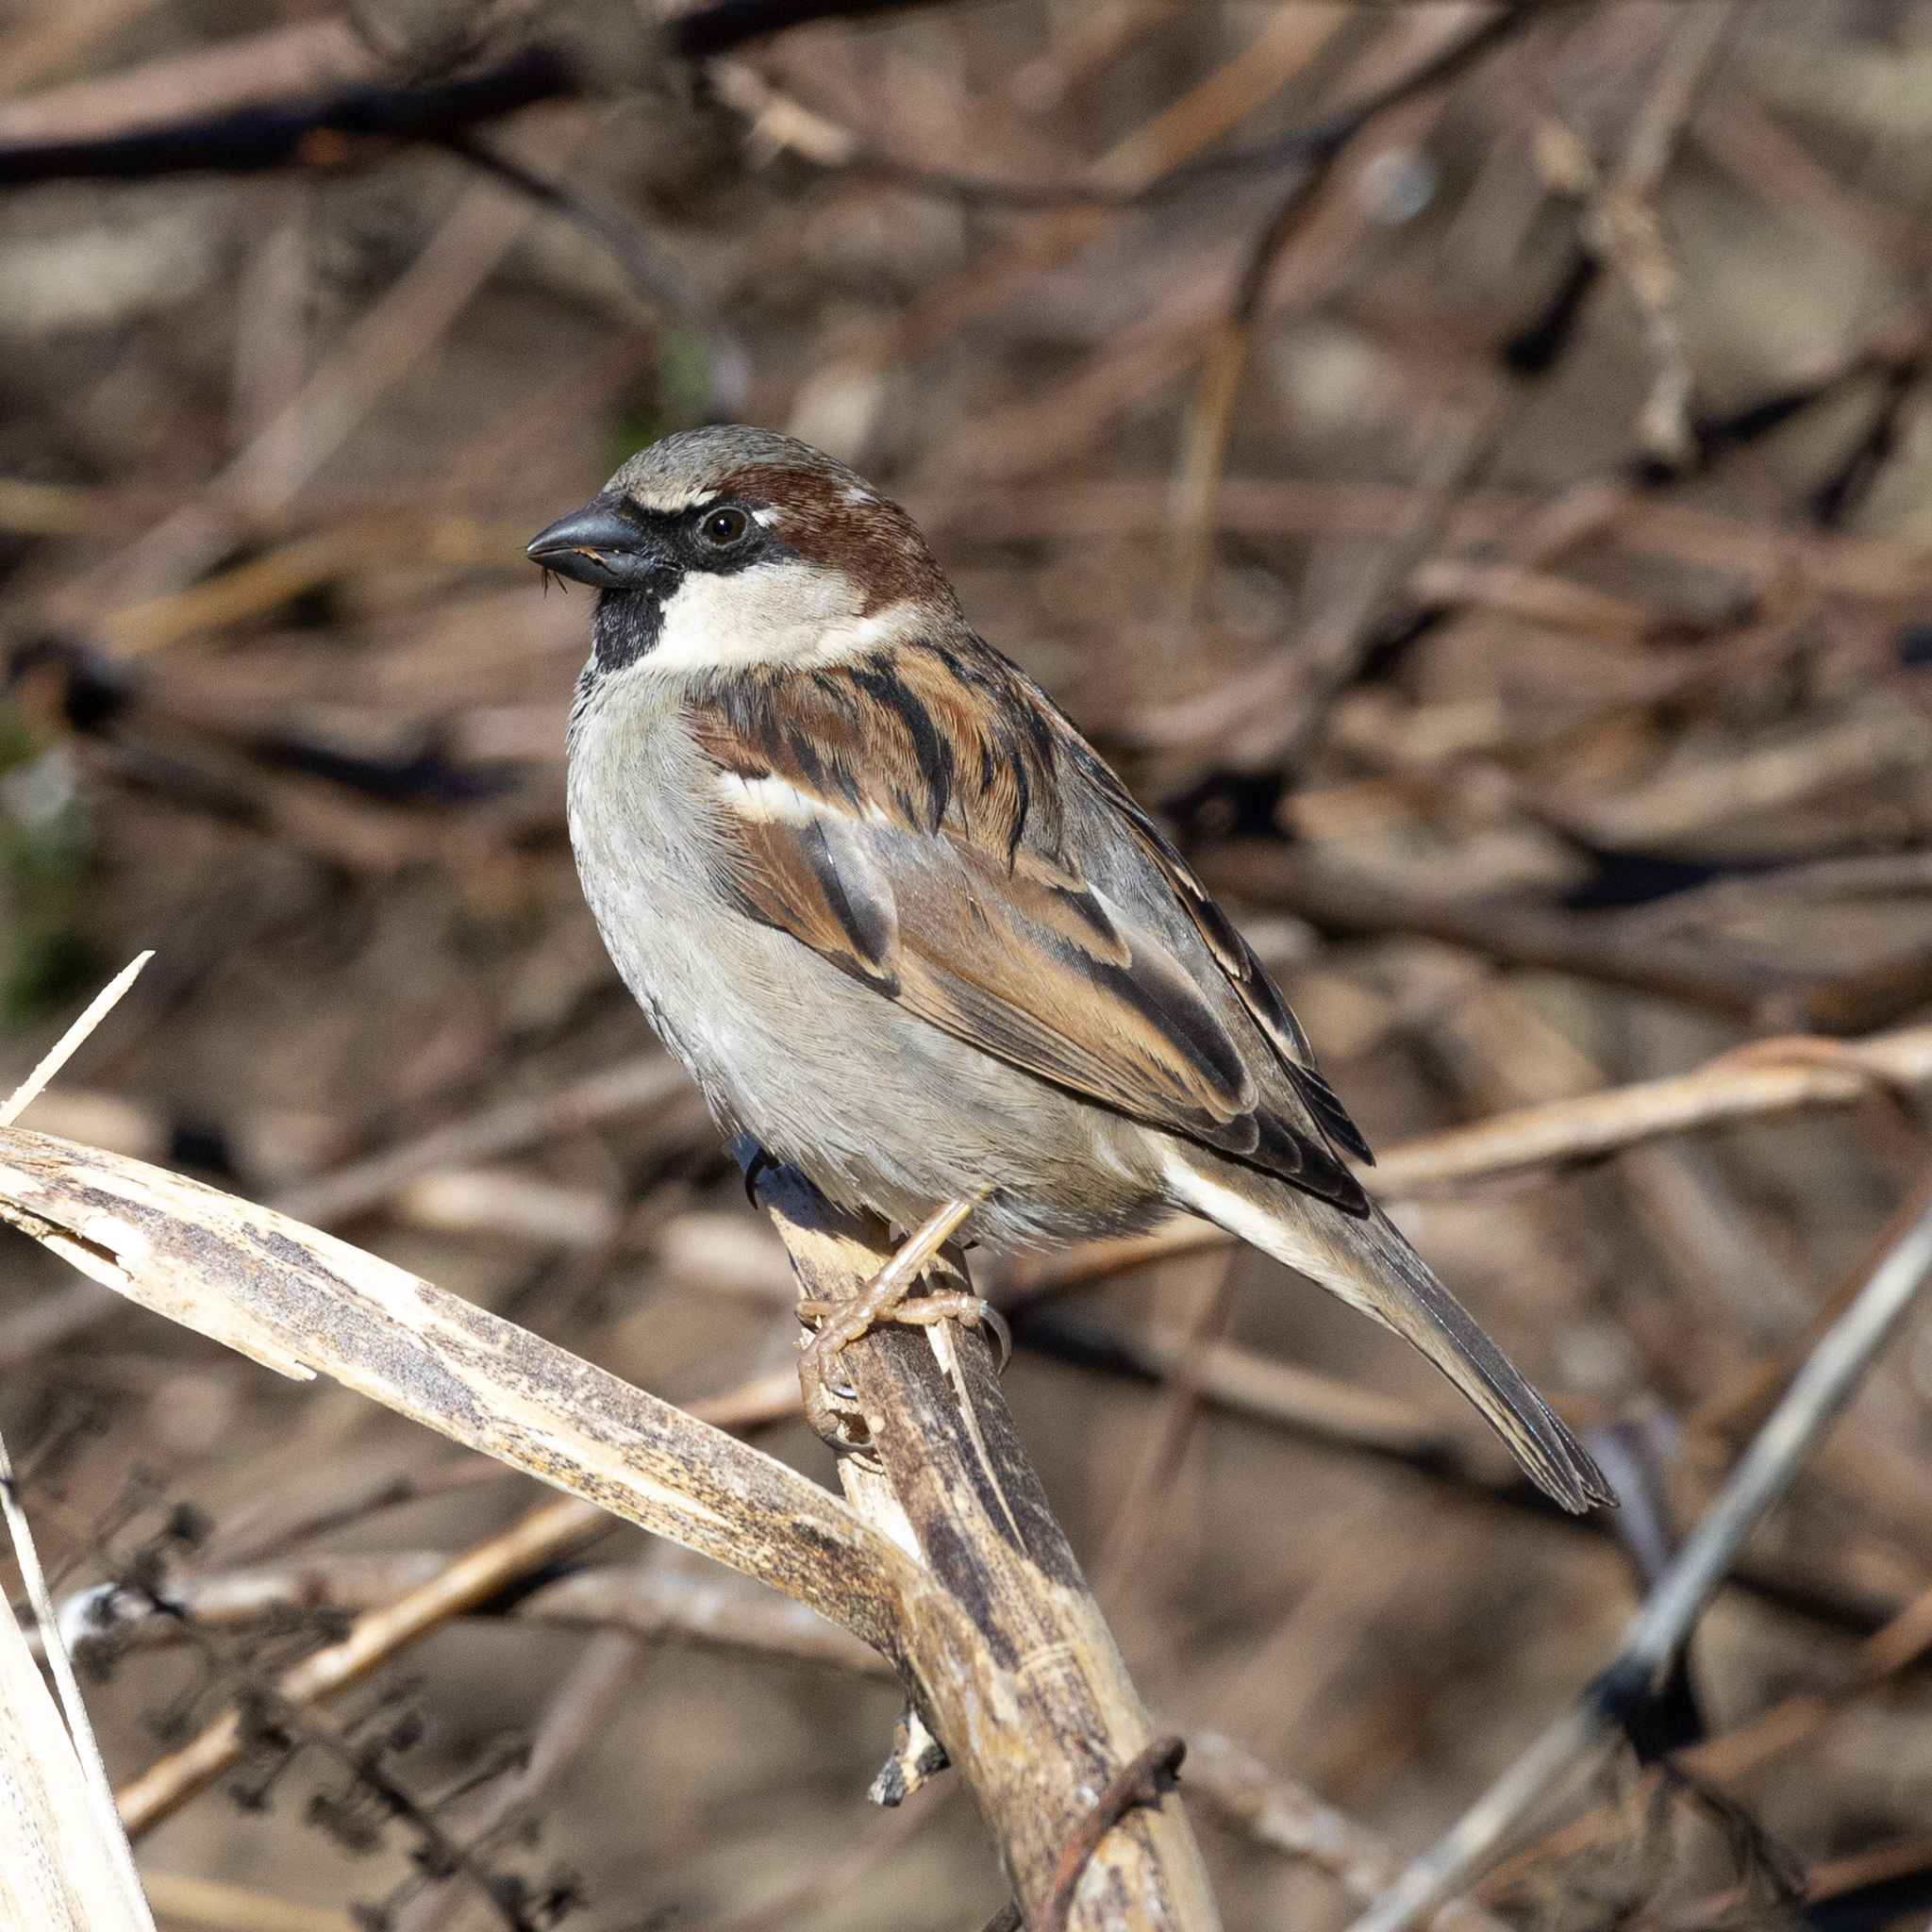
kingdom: Animalia
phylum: Chordata
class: Aves
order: Passeriformes
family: Passeridae
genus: Passer
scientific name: Passer domesticus
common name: House sparrow
